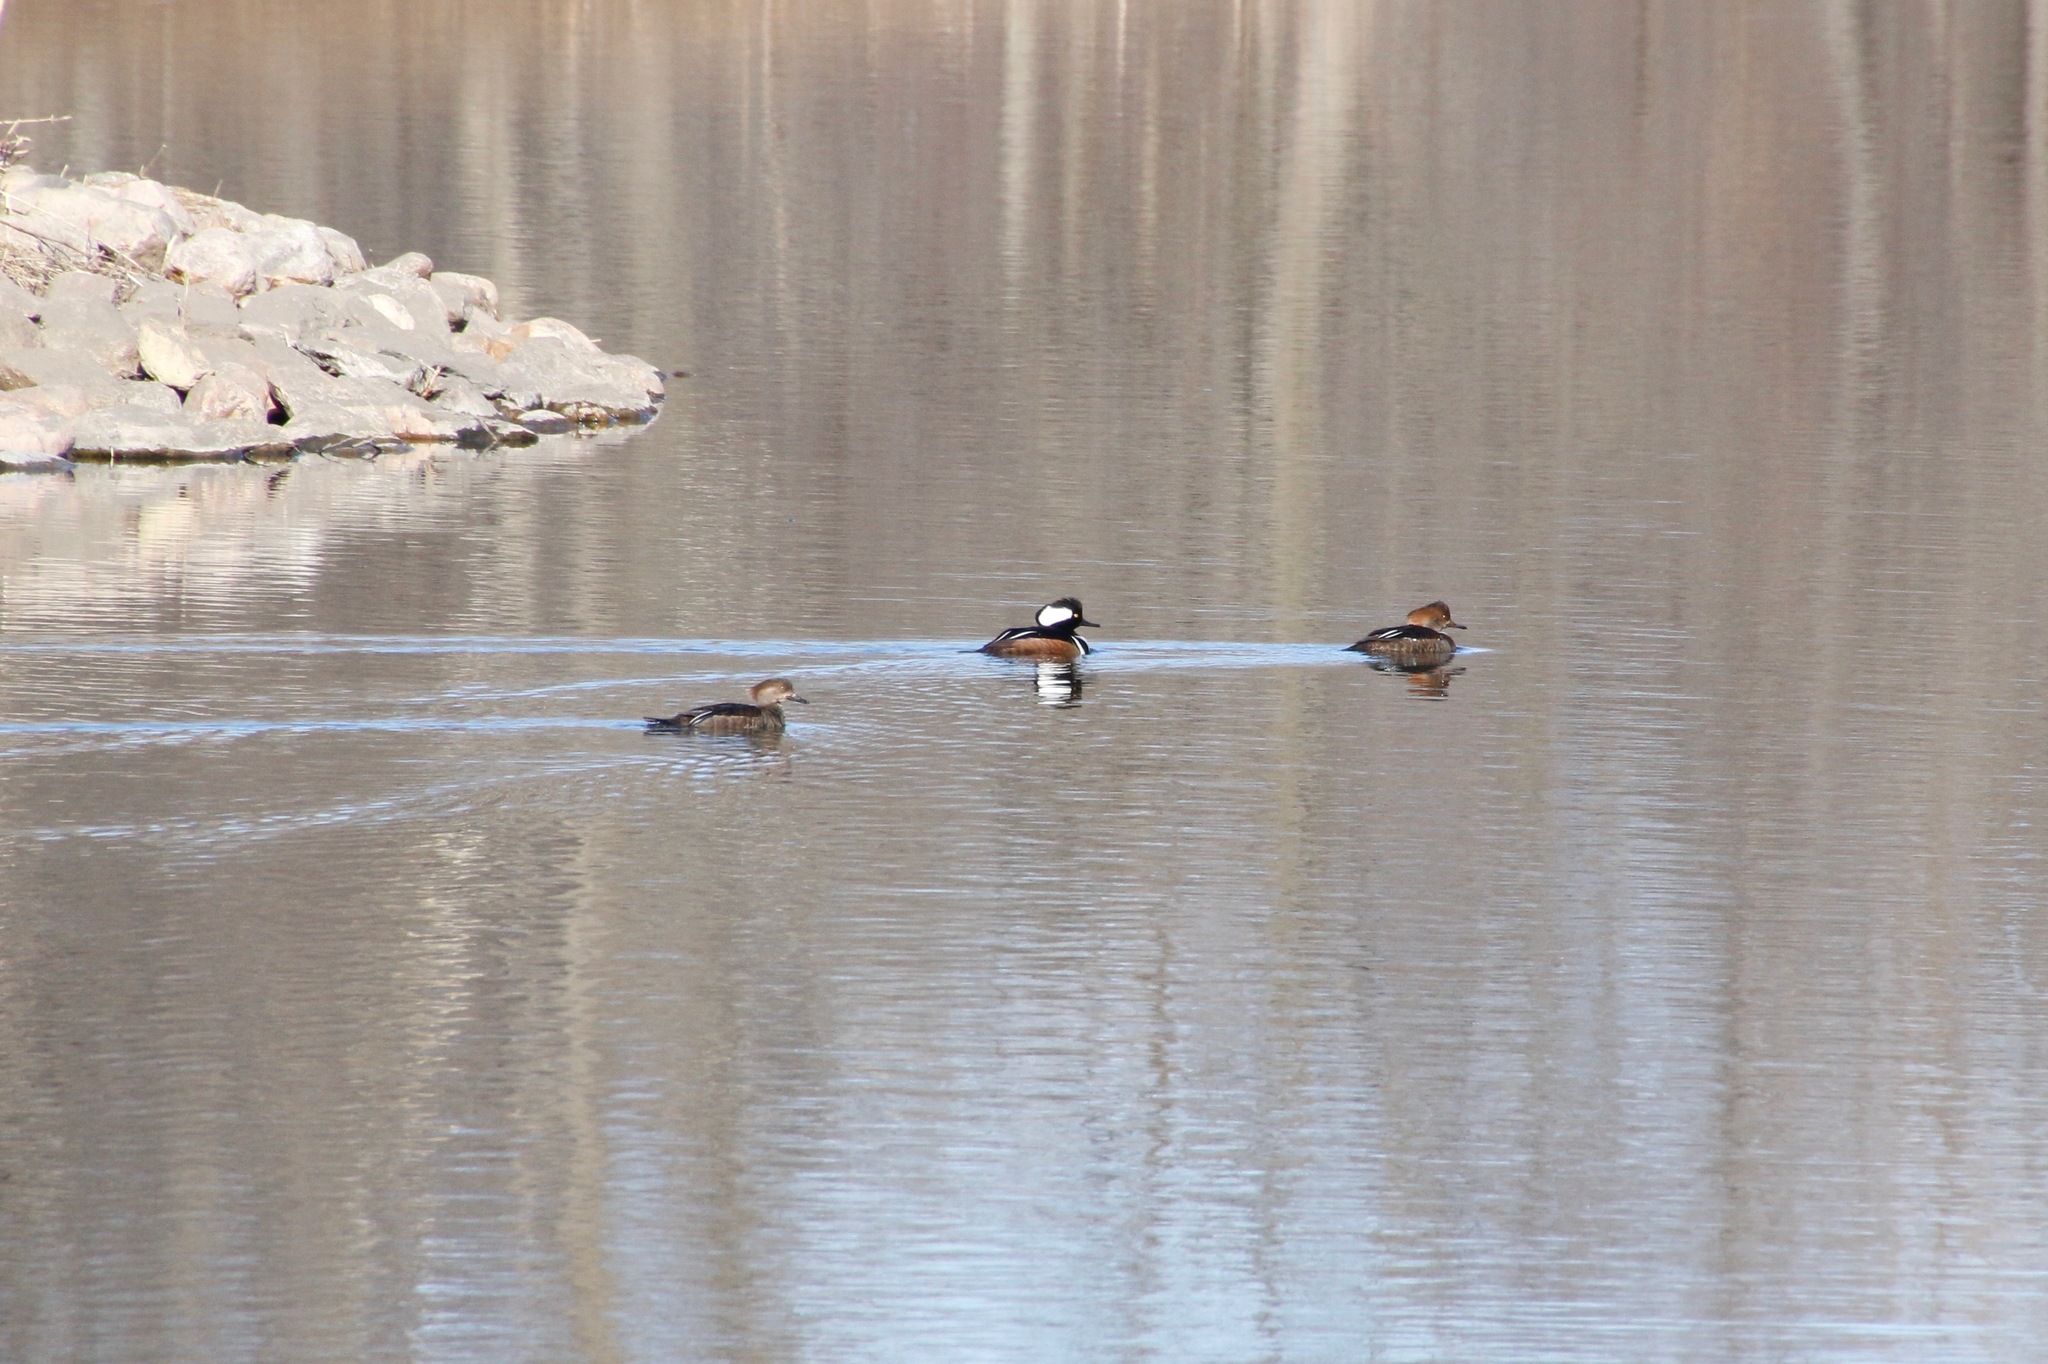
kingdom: Animalia
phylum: Chordata
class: Aves
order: Anseriformes
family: Anatidae
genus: Lophodytes
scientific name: Lophodytes cucullatus
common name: Hooded merganser
